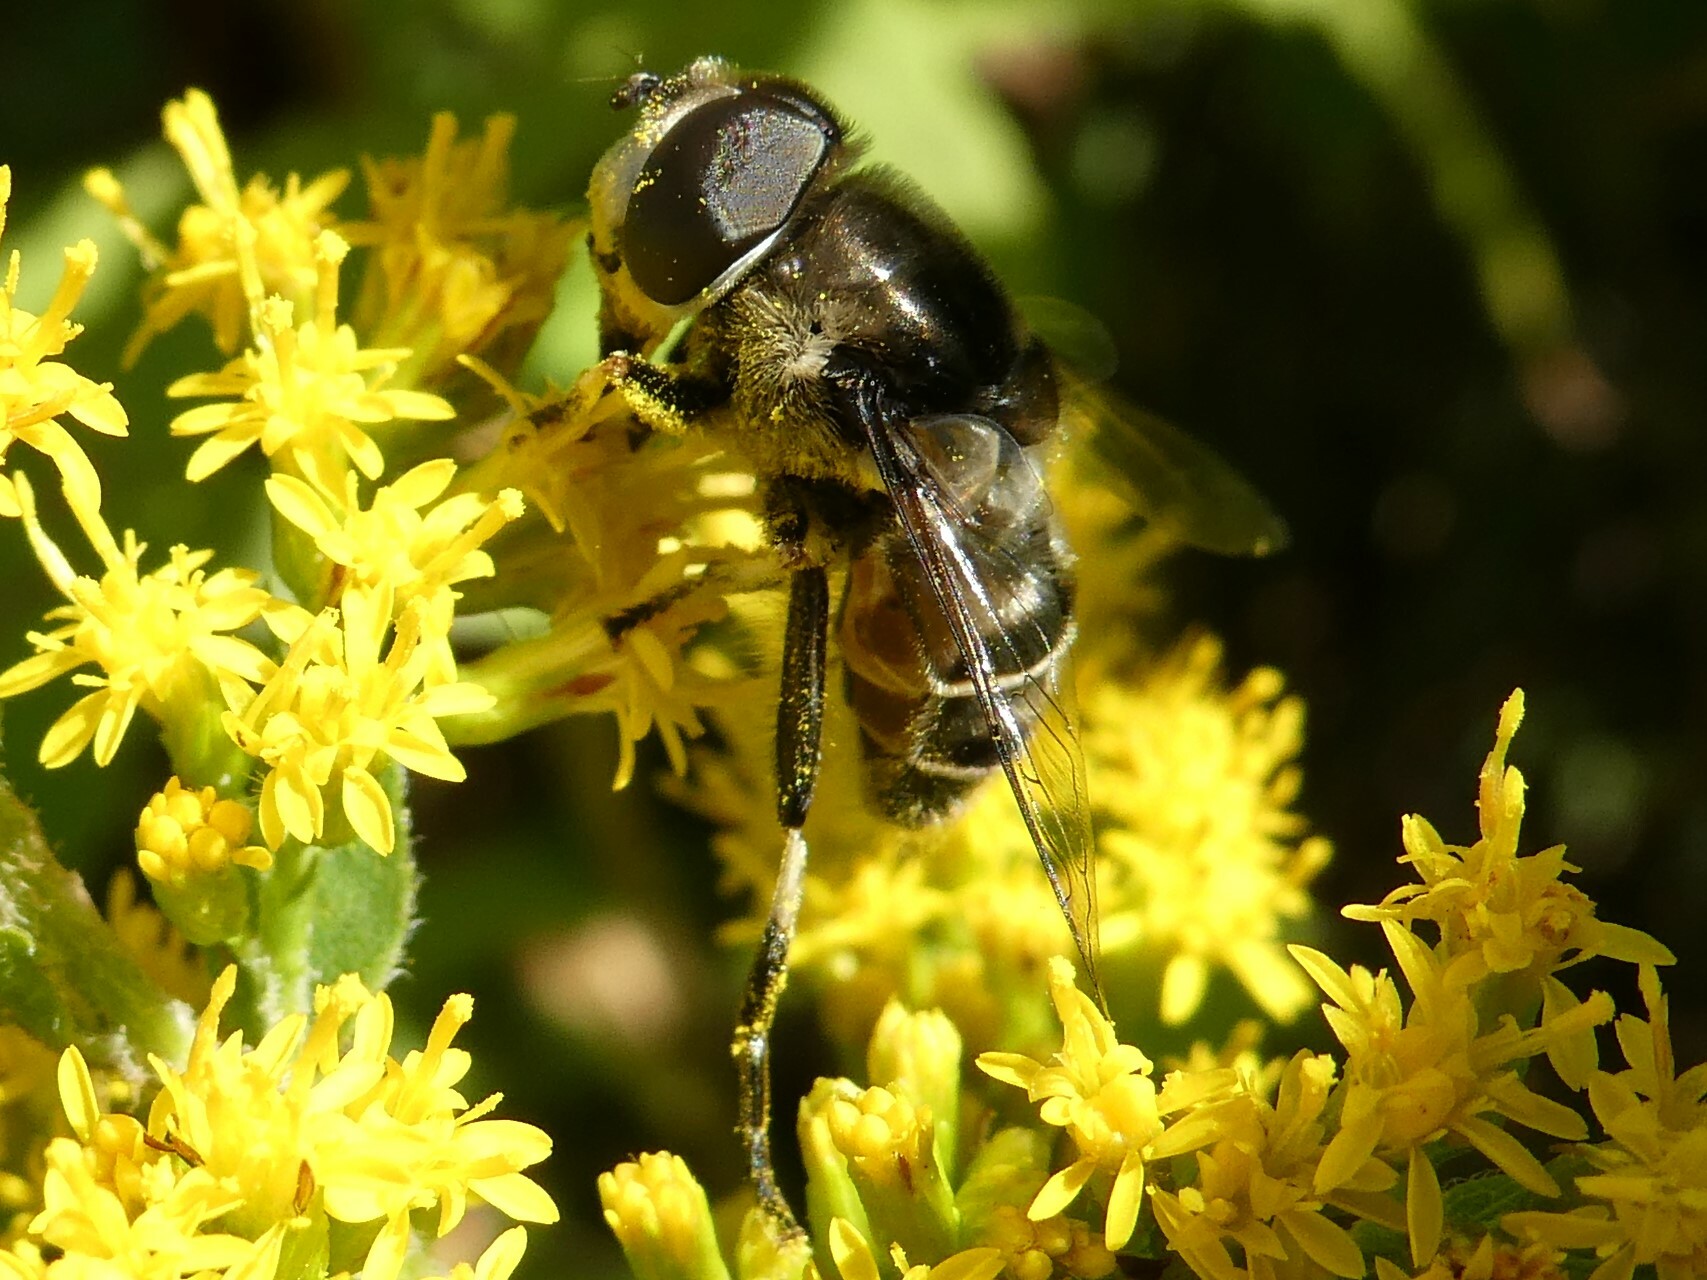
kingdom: Animalia
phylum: Arthropoda
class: Insecta
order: Diptera
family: Syrphidae
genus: Eristalis
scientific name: Eristalis dimidiata
